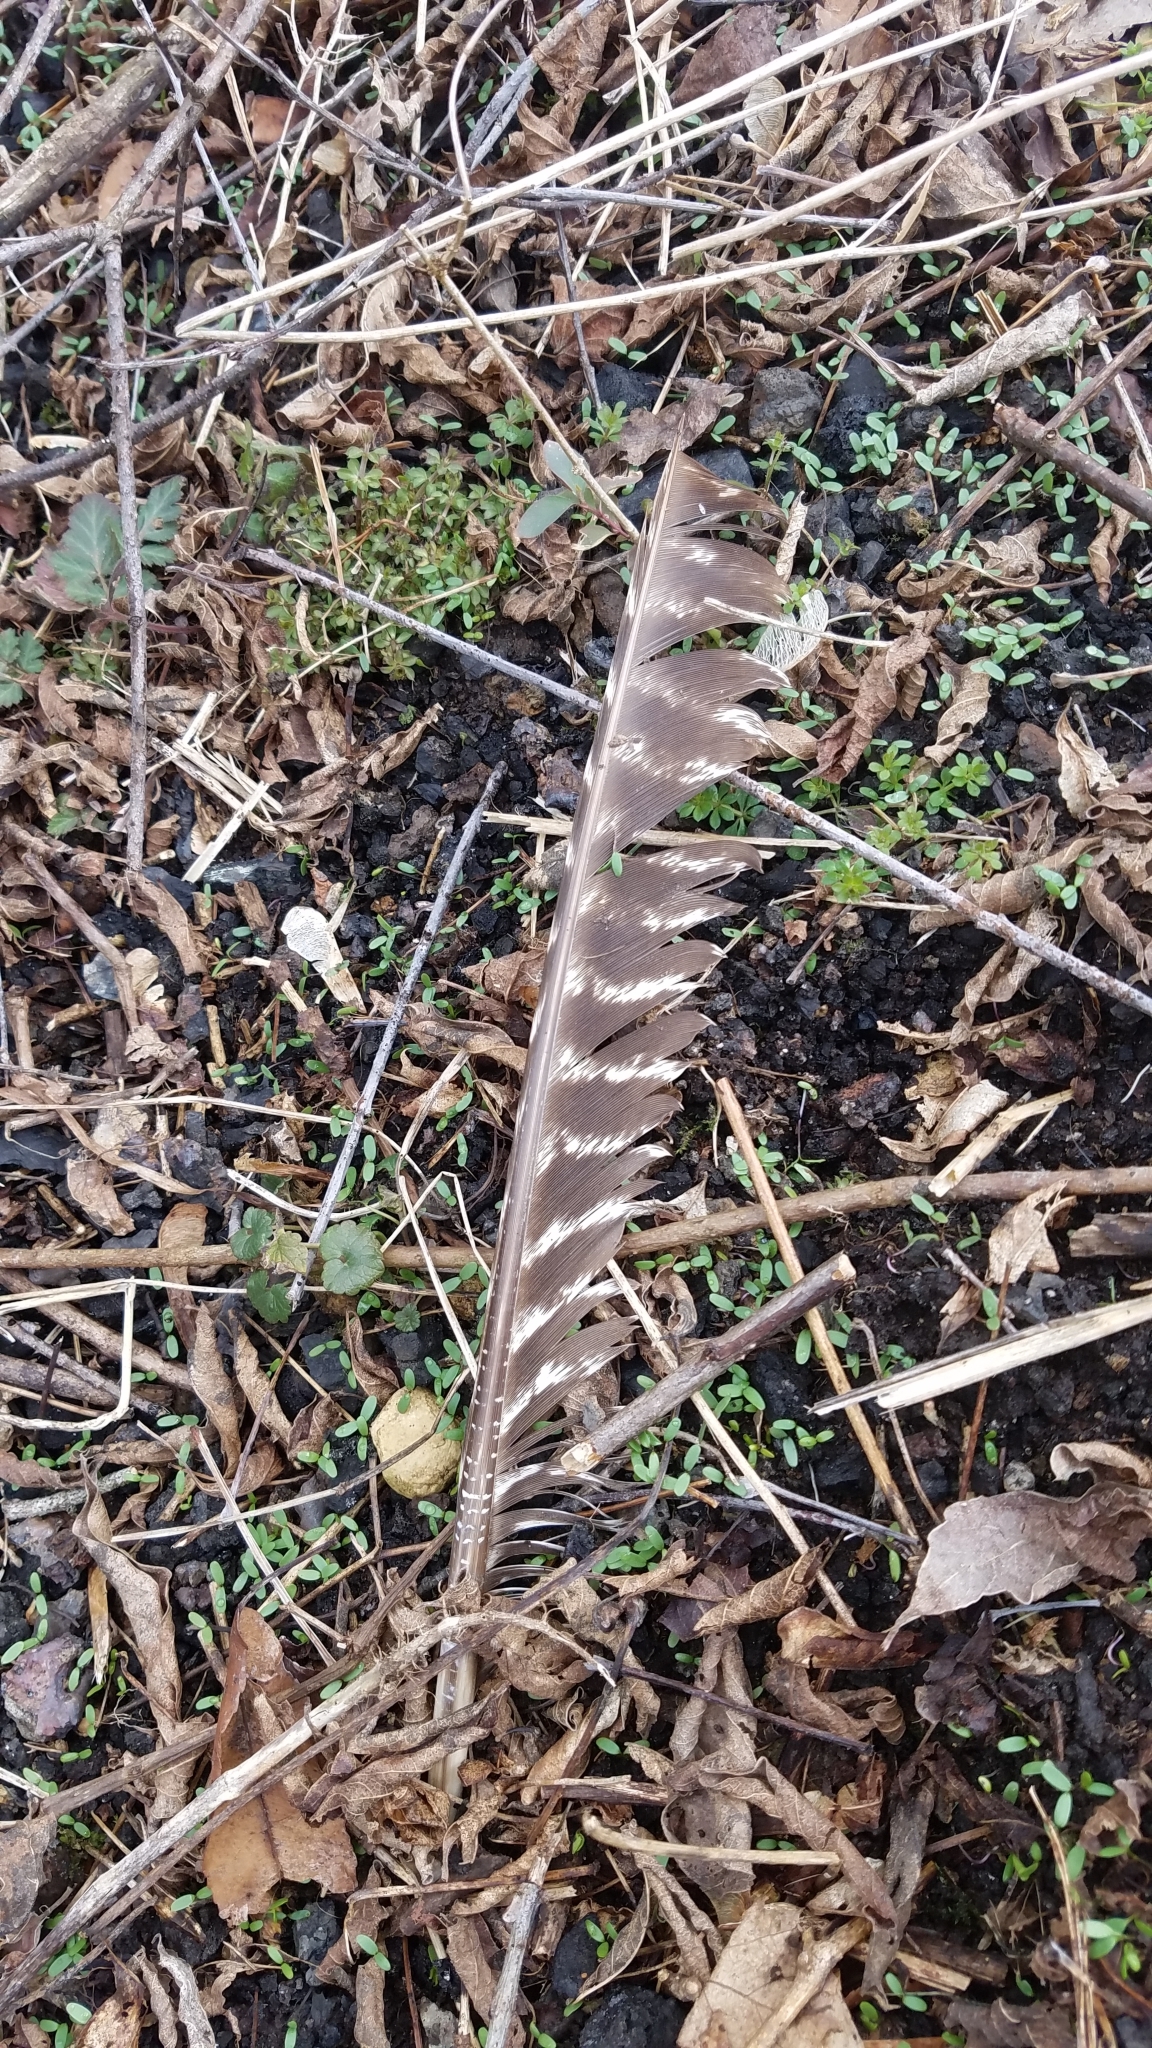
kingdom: Animalia
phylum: Chordata
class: Aves
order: Galliformes
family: Phasianidae
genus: Meleagris
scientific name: Meleagris gallopavo
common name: Wild turkey
